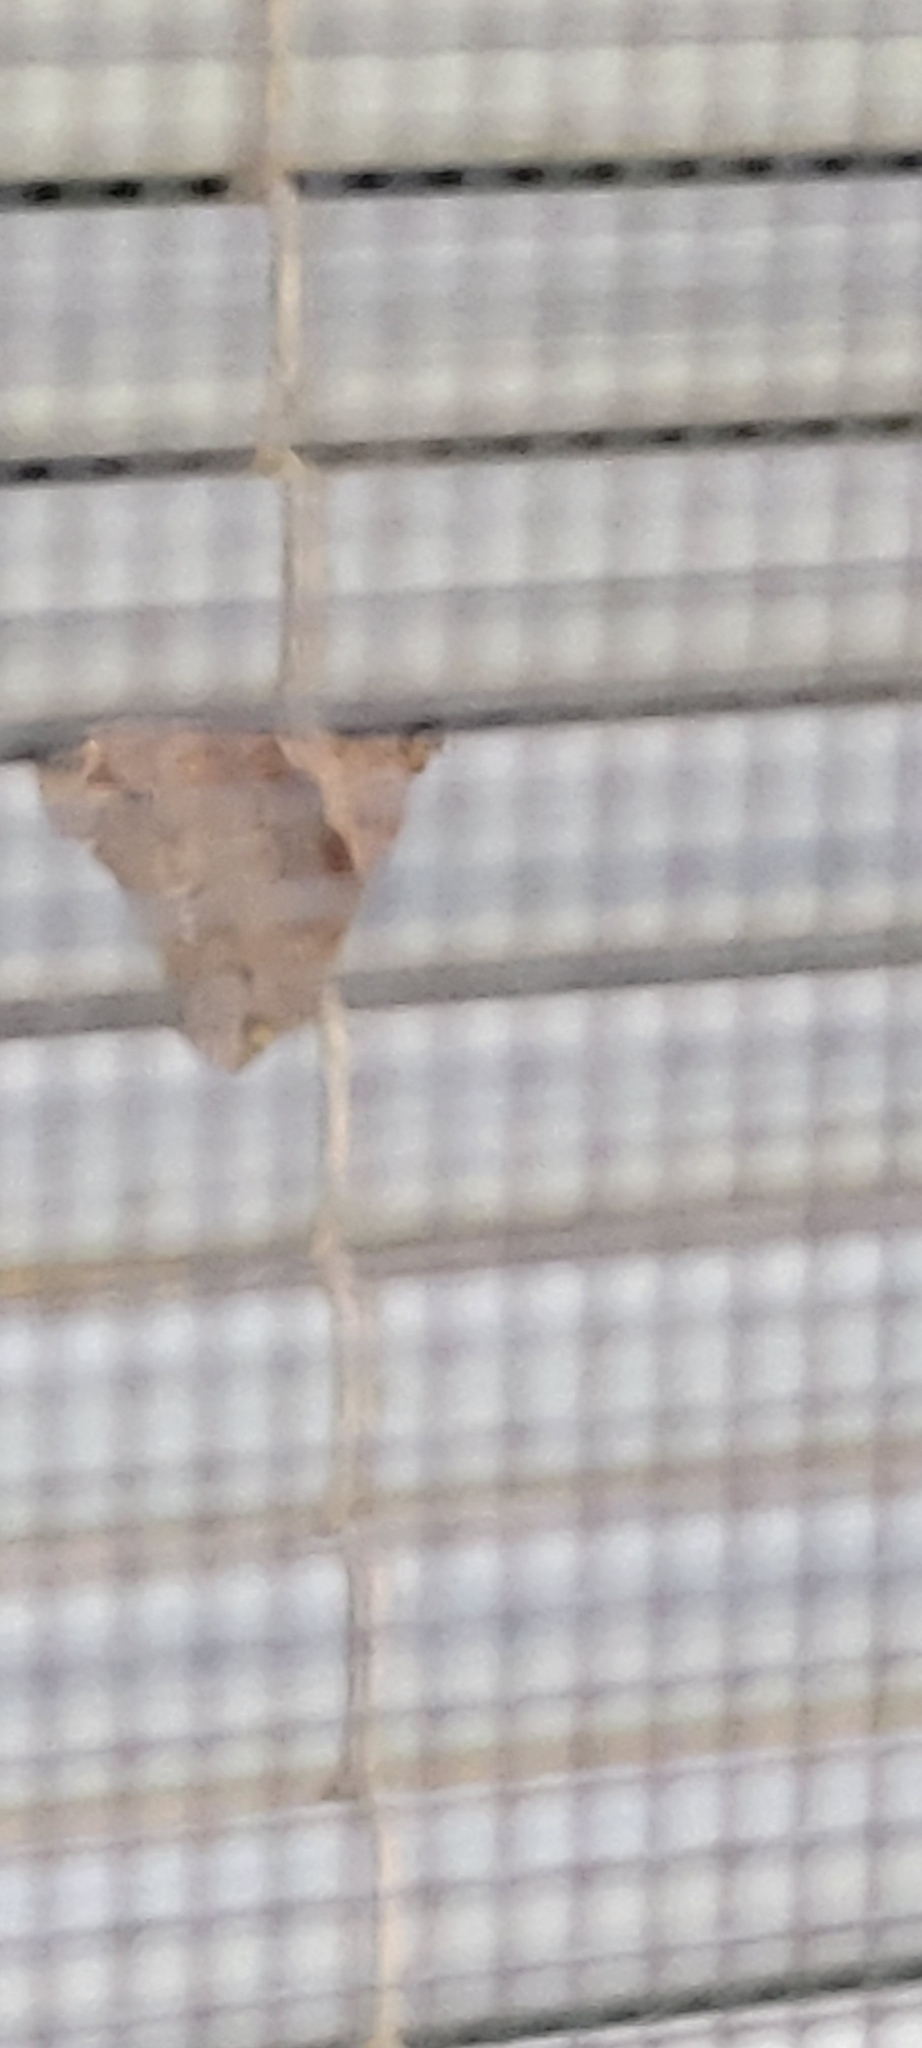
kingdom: Animalia
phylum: Arthropoda
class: Insecta
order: Lepidoptera
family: Erebidae
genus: Lascoria
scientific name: Lascoria ambigualis
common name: Ambiguous moth
